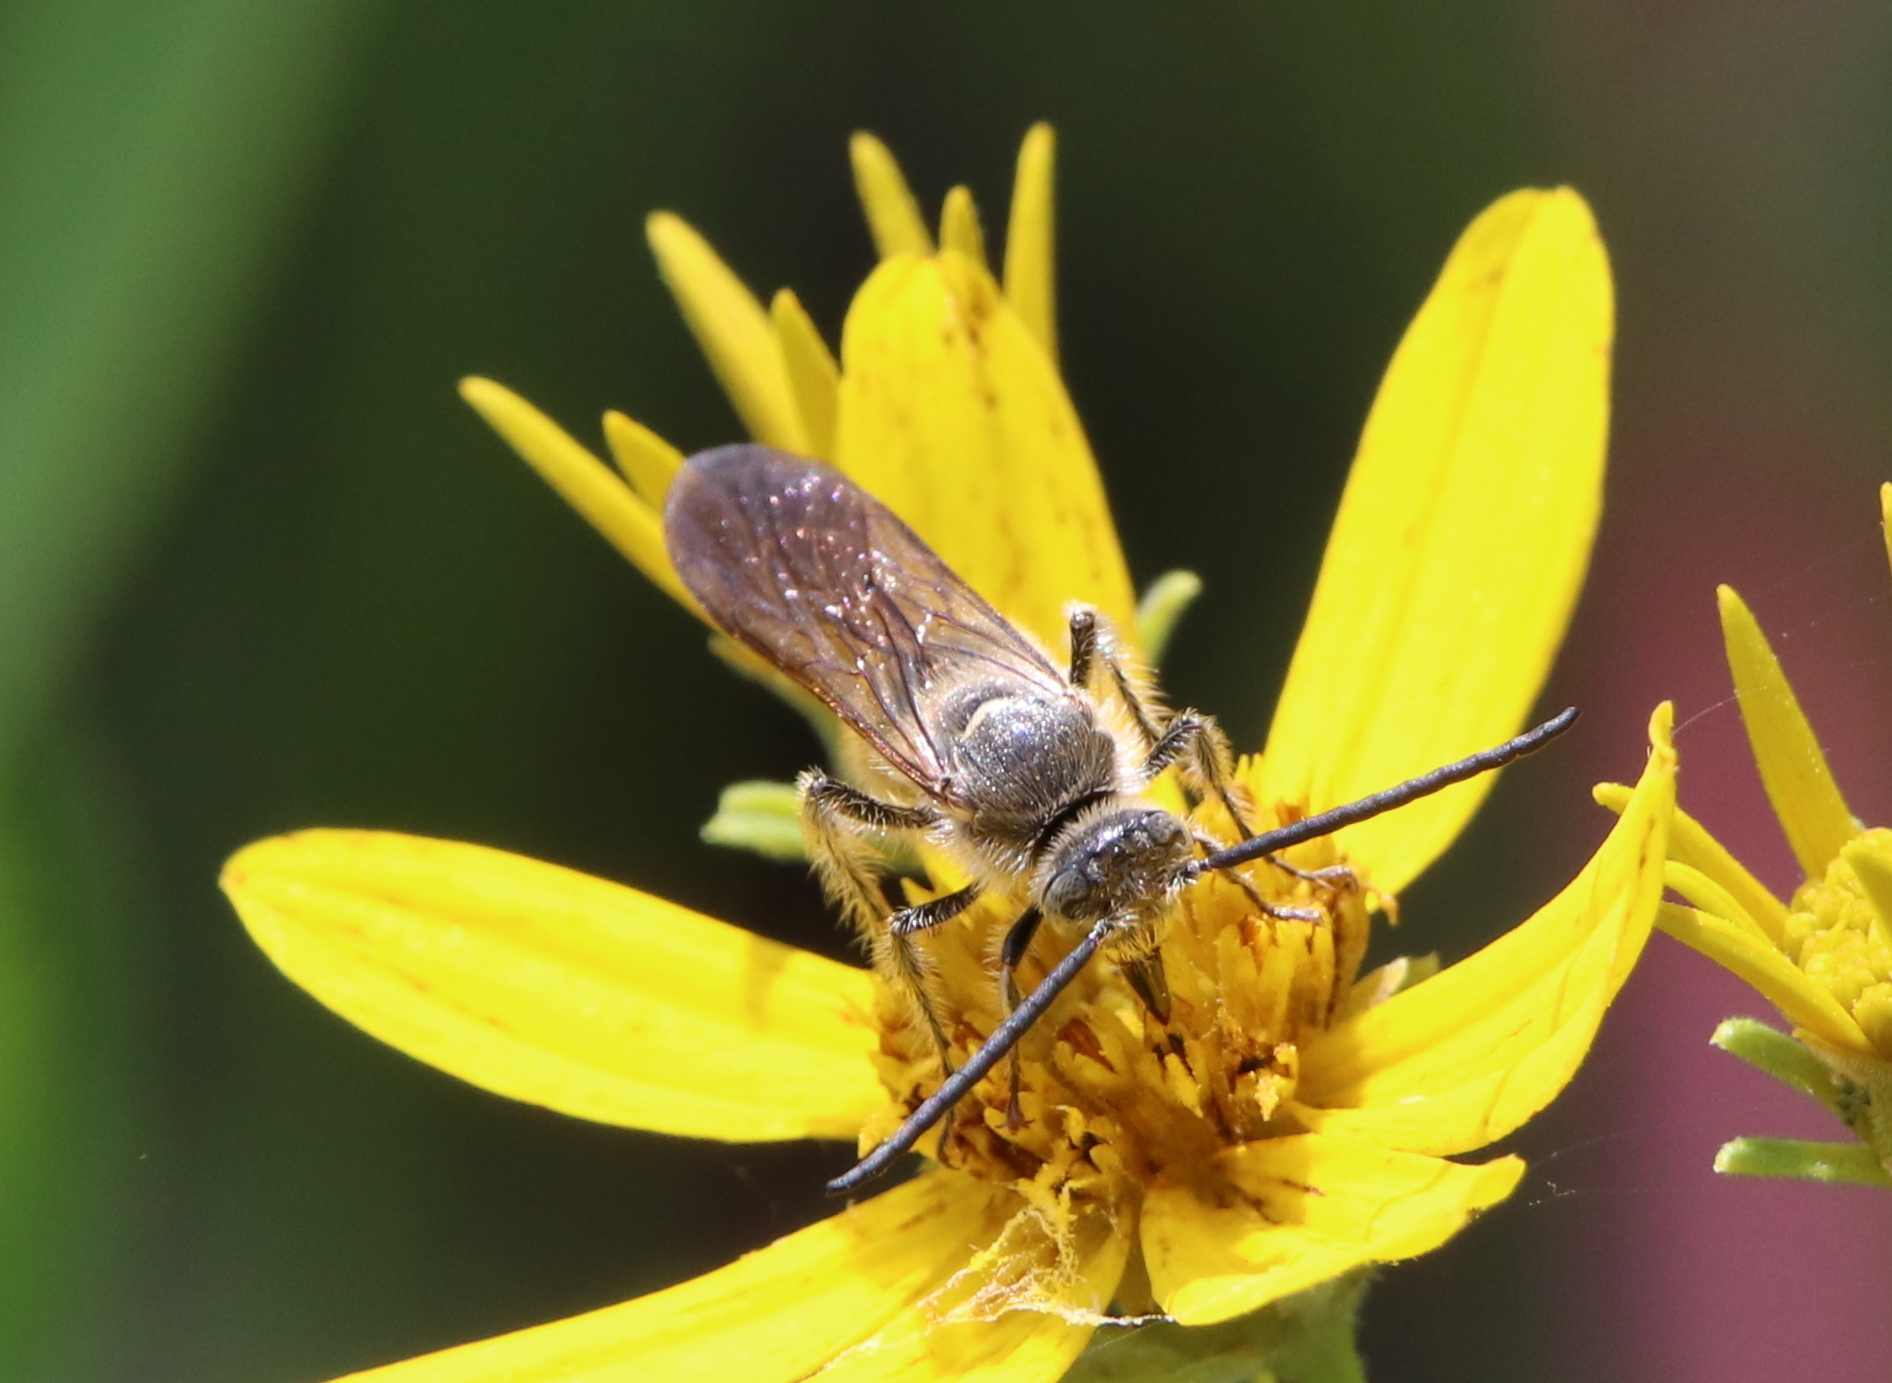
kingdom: Animalia
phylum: Arthropoda
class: Insecta
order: Hymenoptera
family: Scoliidae
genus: Dielis
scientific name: Dielis
